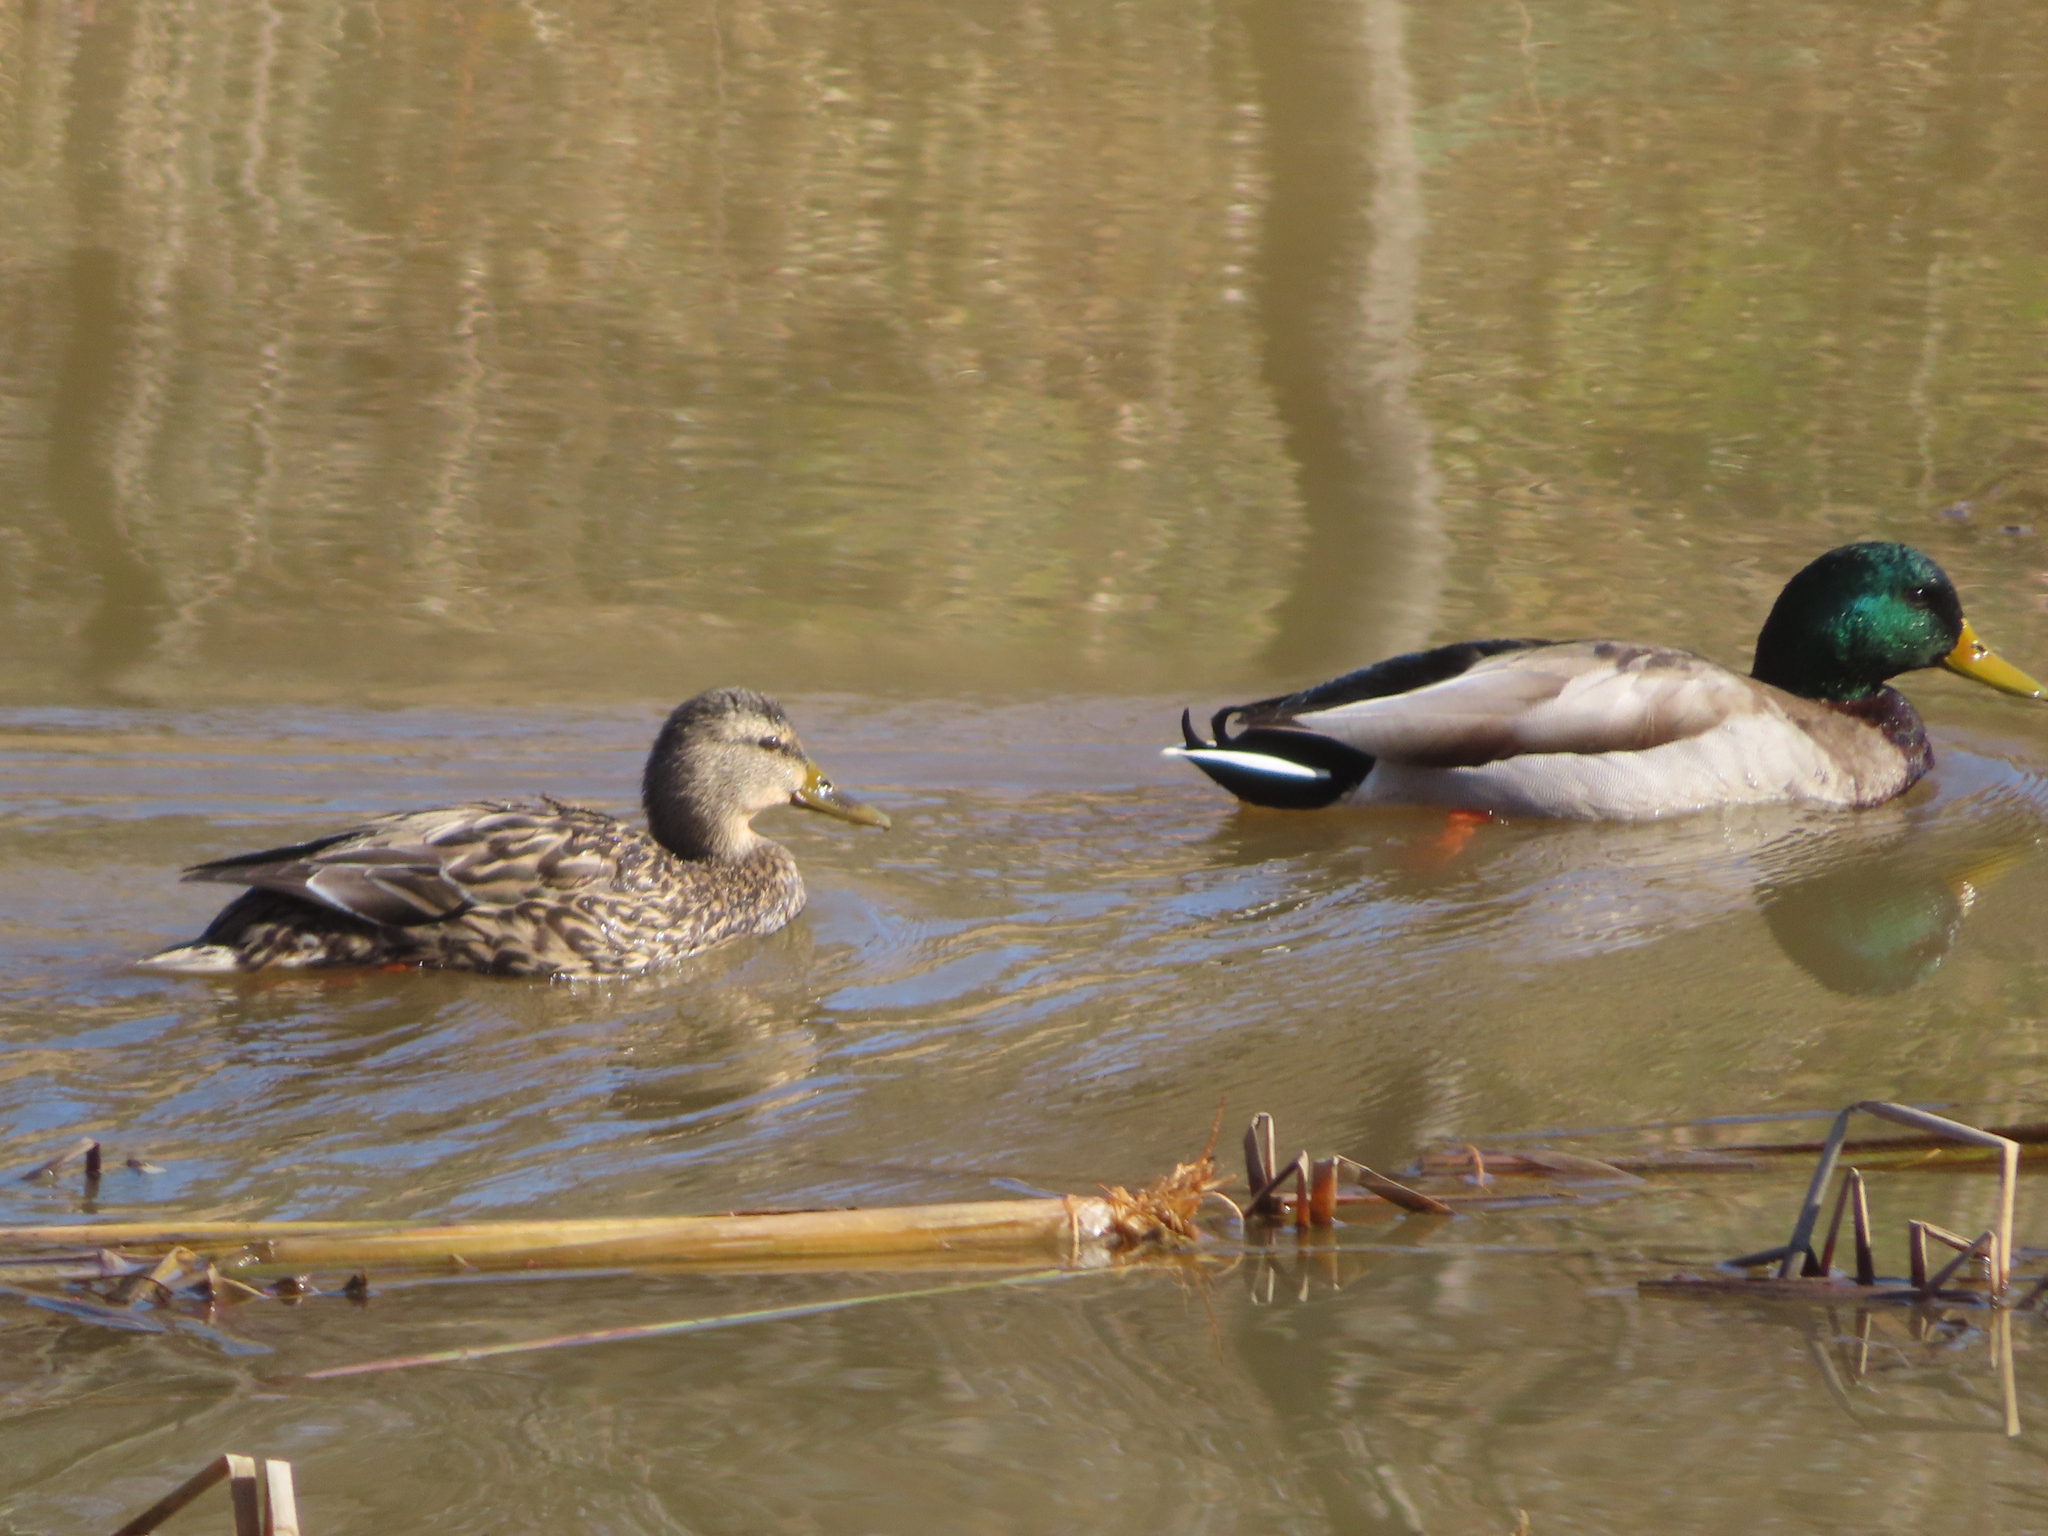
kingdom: Animalia
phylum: Chordata
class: Aves
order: Anseriformes
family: Anatidae
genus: Anas
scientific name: Anas platyrhynchos
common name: Mallard
